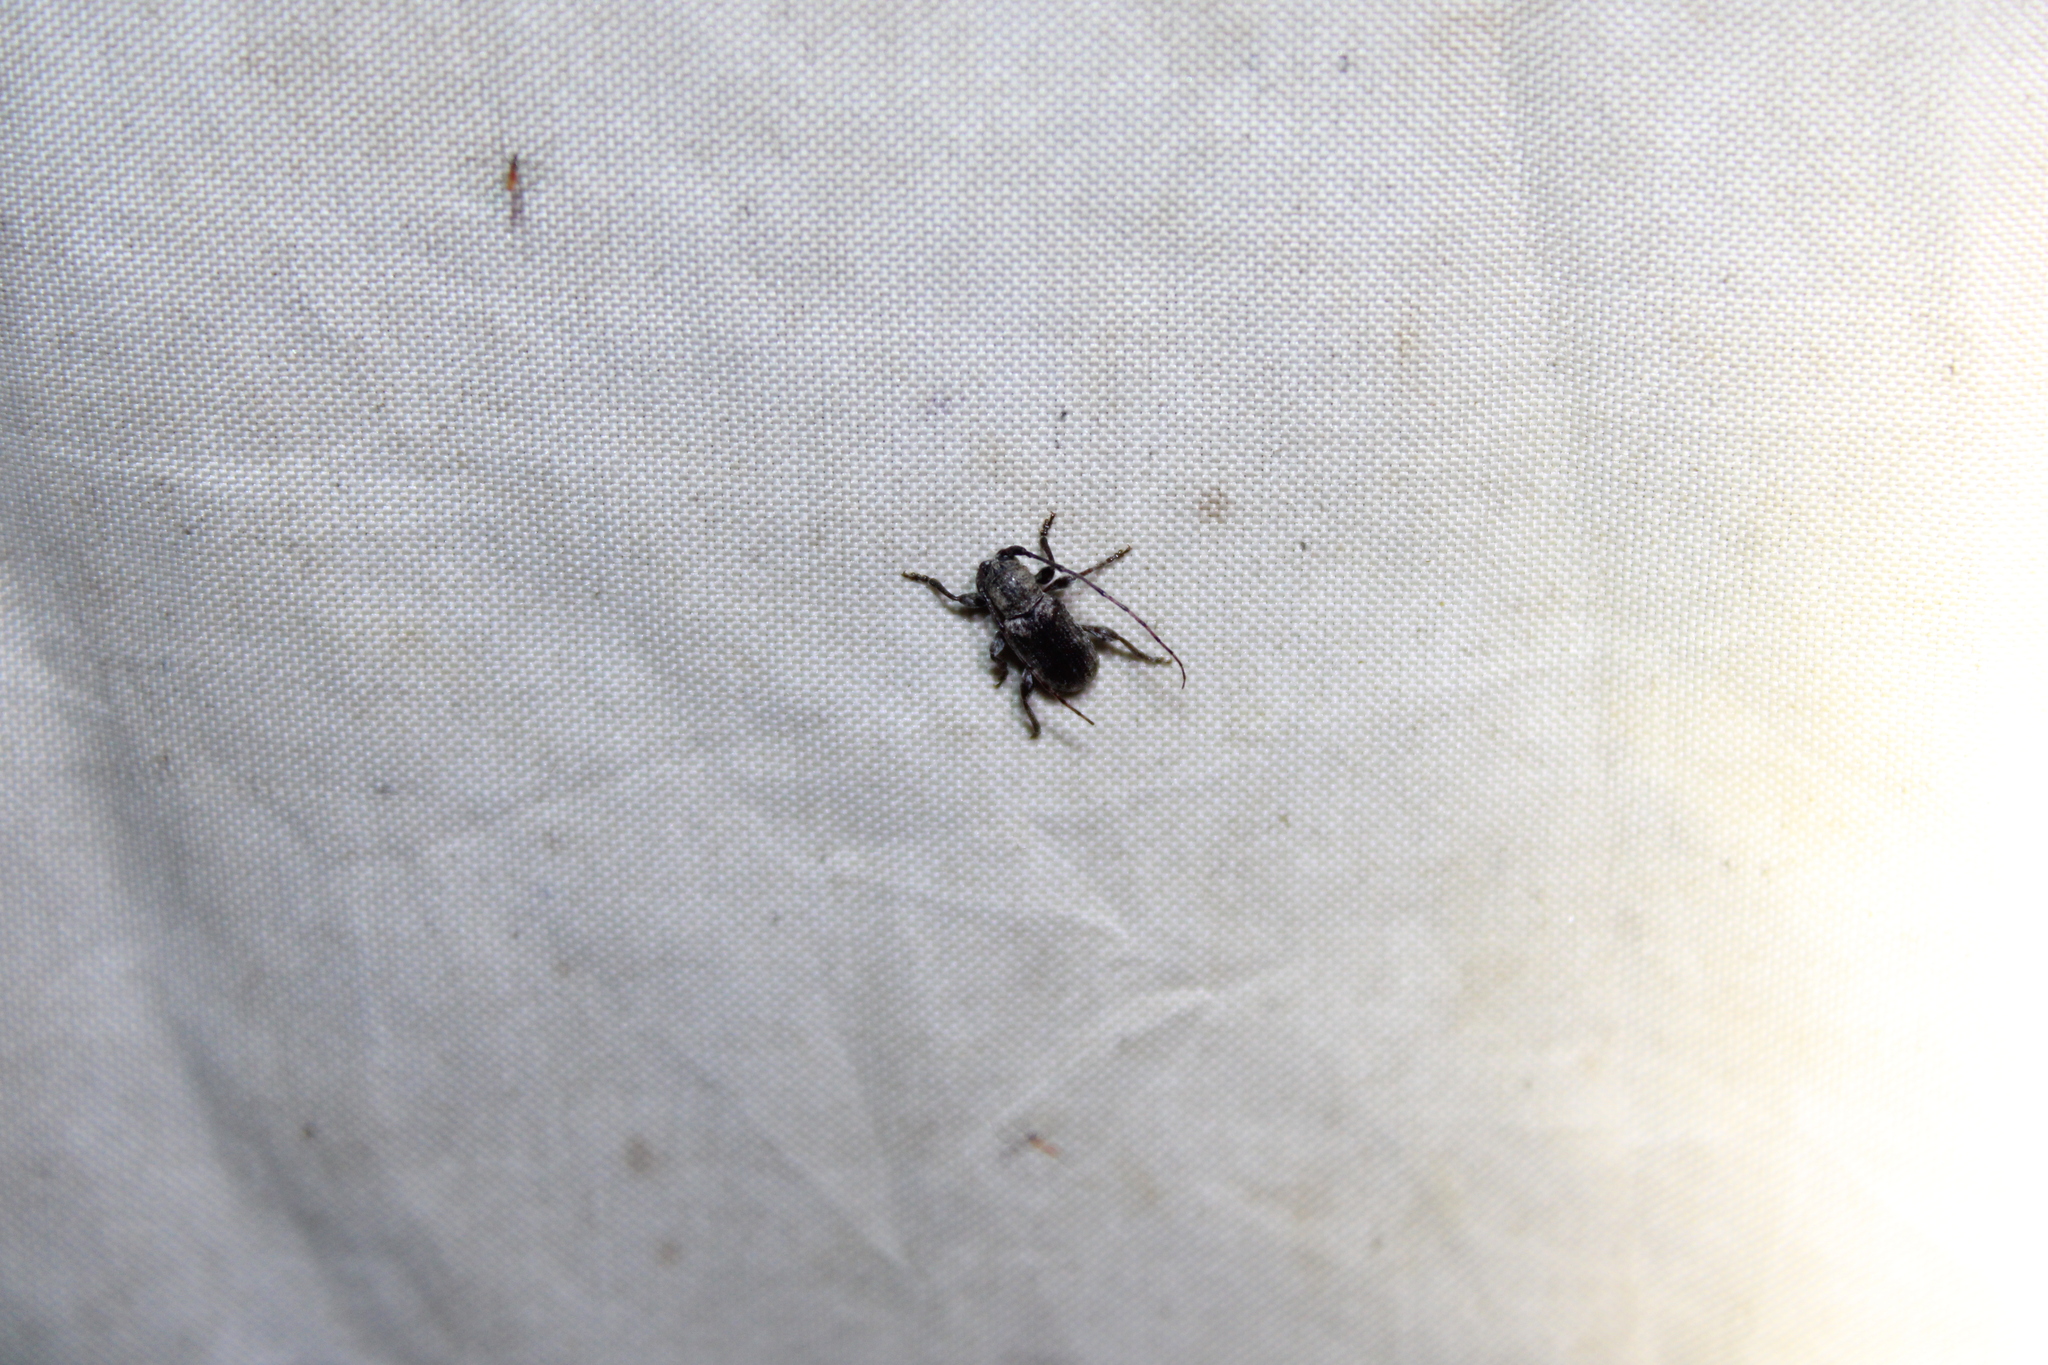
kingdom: Animalia
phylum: Arthropoda
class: Insecta
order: Coleoptera
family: Cerambycidae
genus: Ecyrus
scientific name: Ecyrus dasycerus
